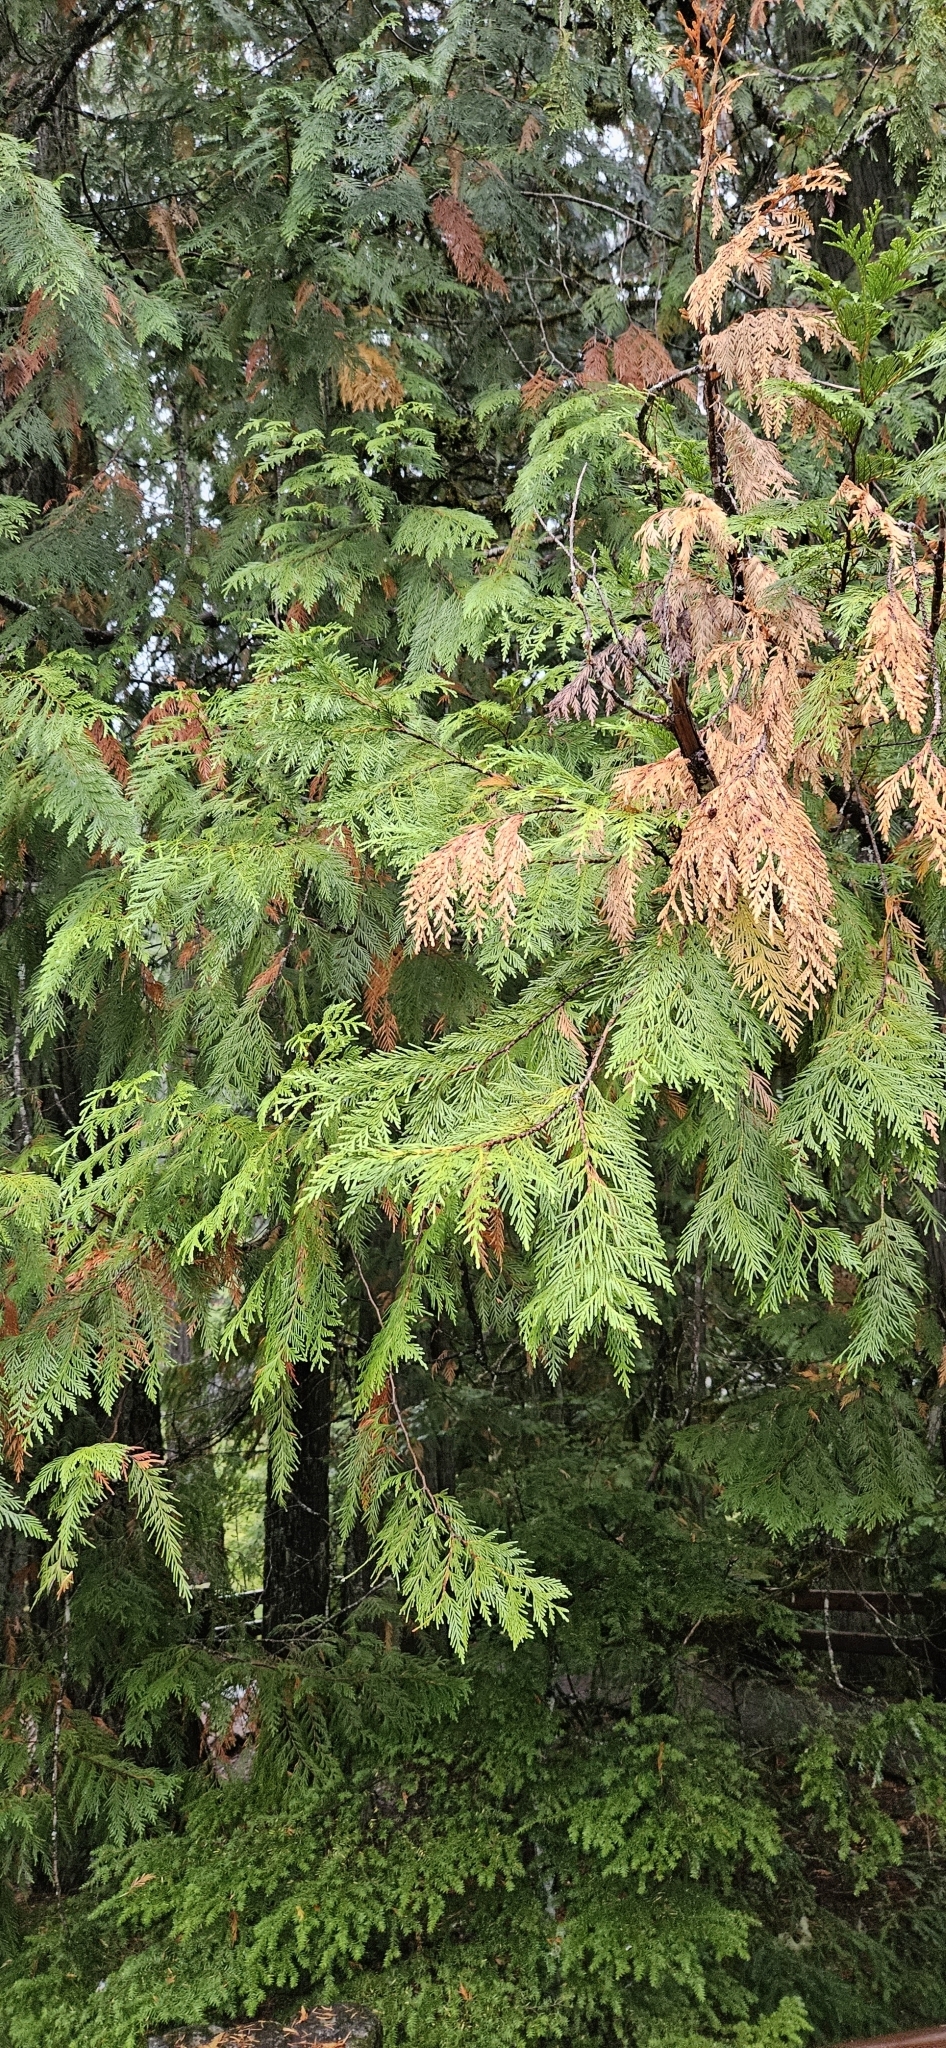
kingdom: Plantae
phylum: Tracheophyta
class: Pinopsida
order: Pinales
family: Cupressaceae
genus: Thuja
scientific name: Thuja plicata
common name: Western red-cedar
